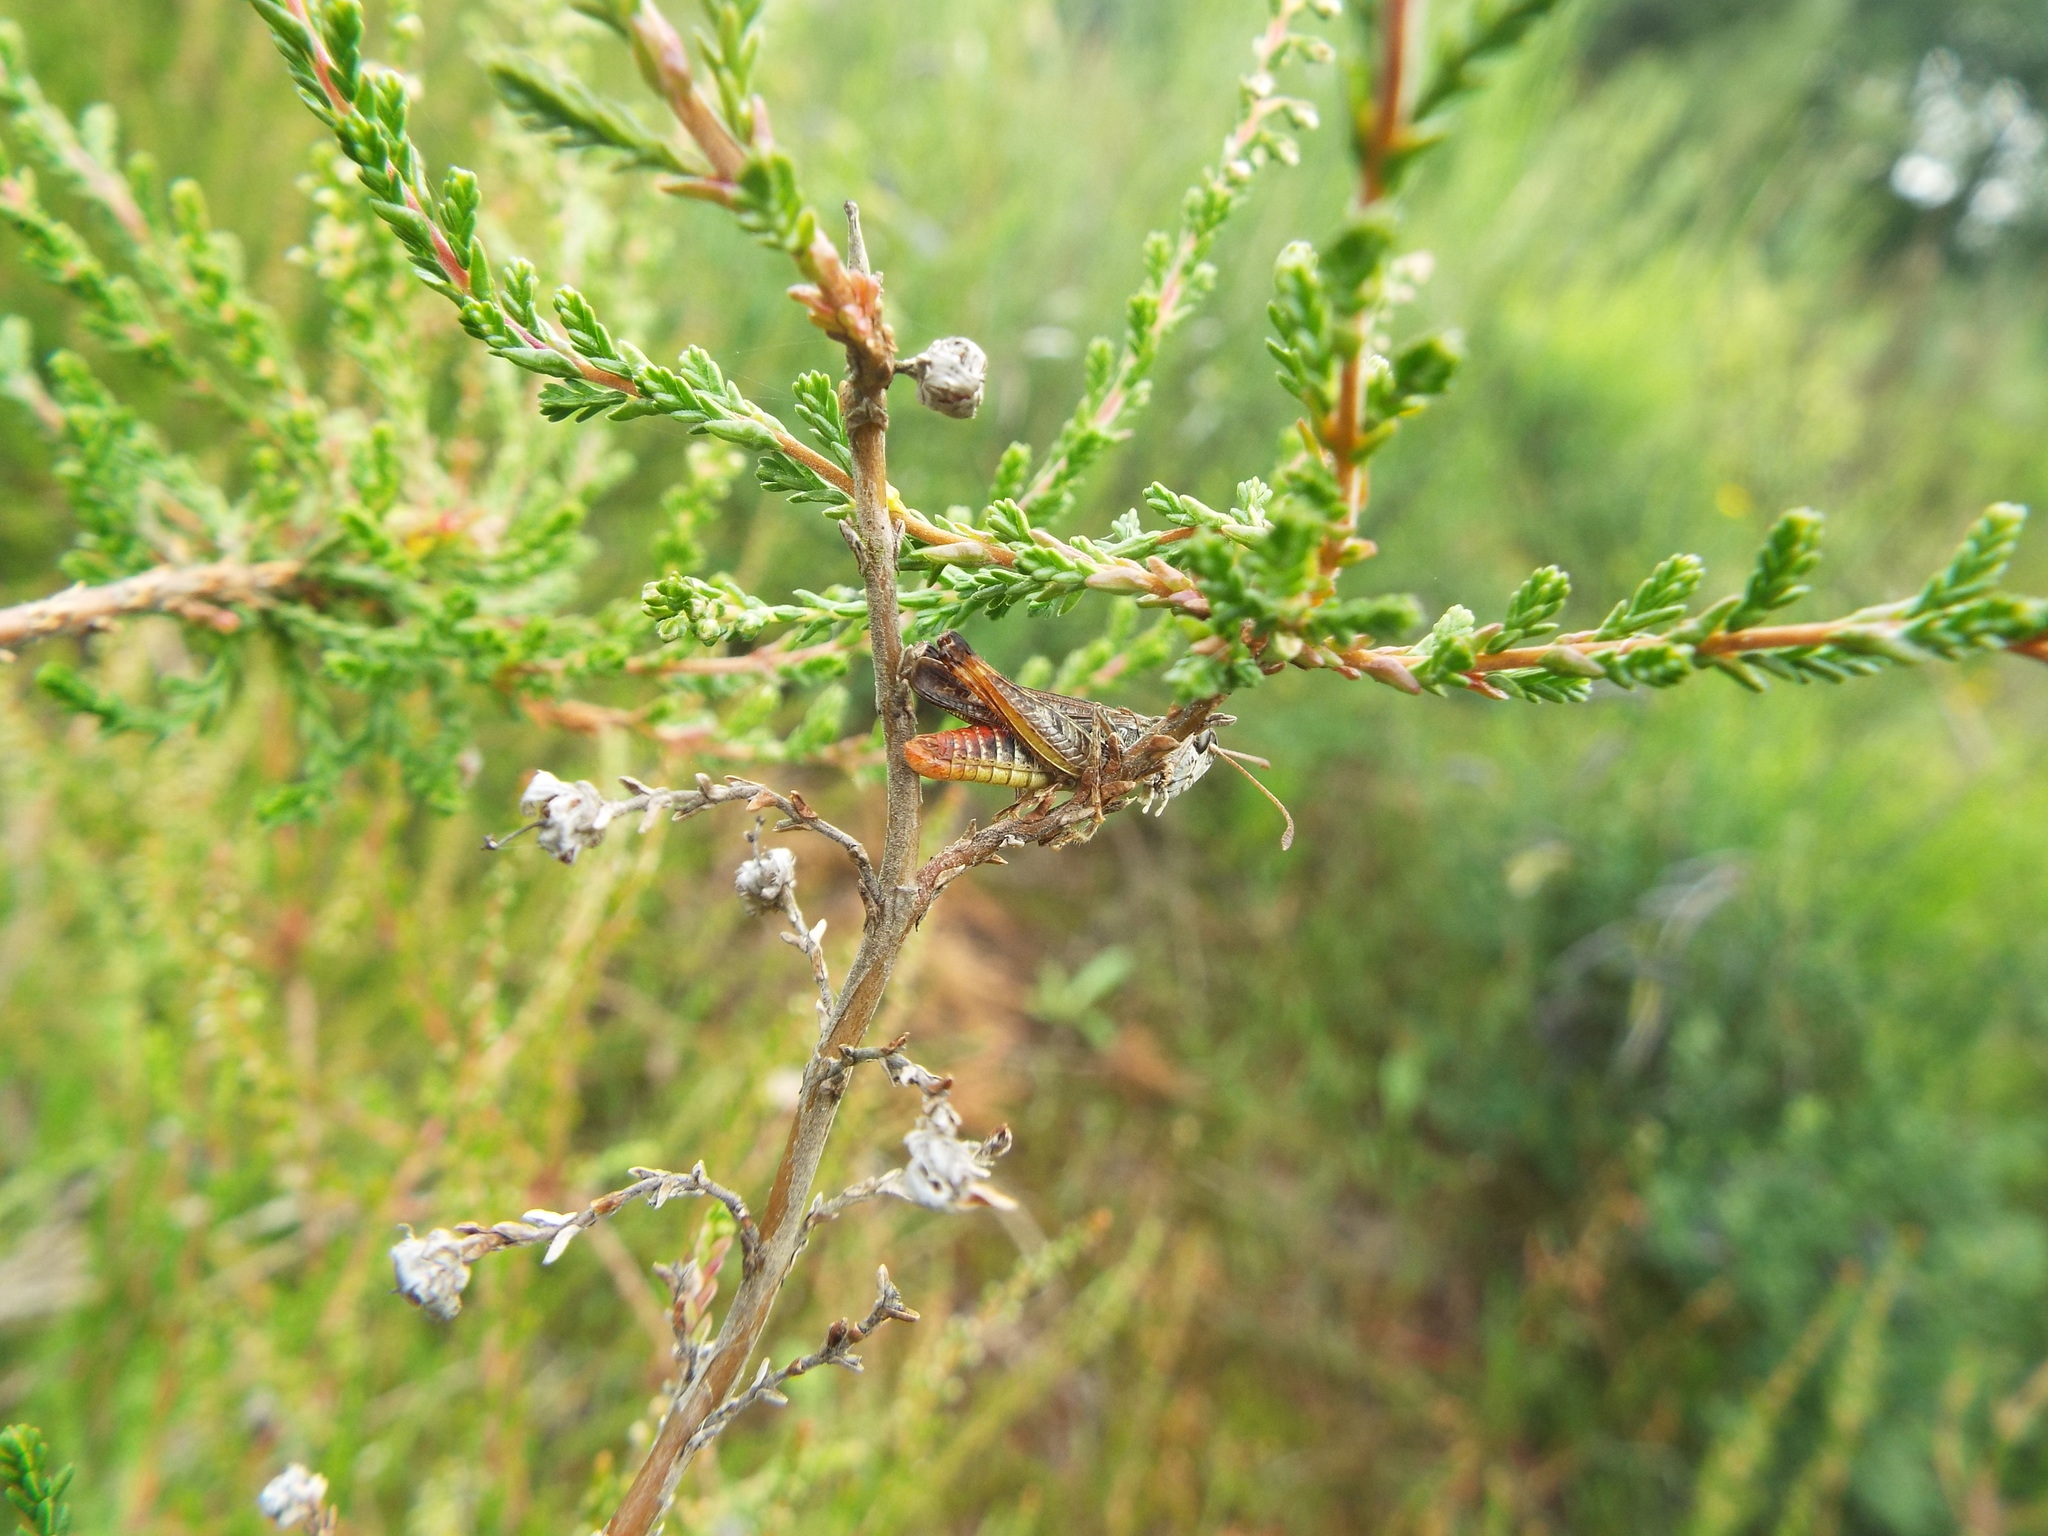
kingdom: Animalia
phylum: Arthropoda
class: Insecta
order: Orthoptera
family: Acrididae
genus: Myrmeleotettix
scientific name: Myrmeleotettix maculatus
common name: Mottled grasshopper
